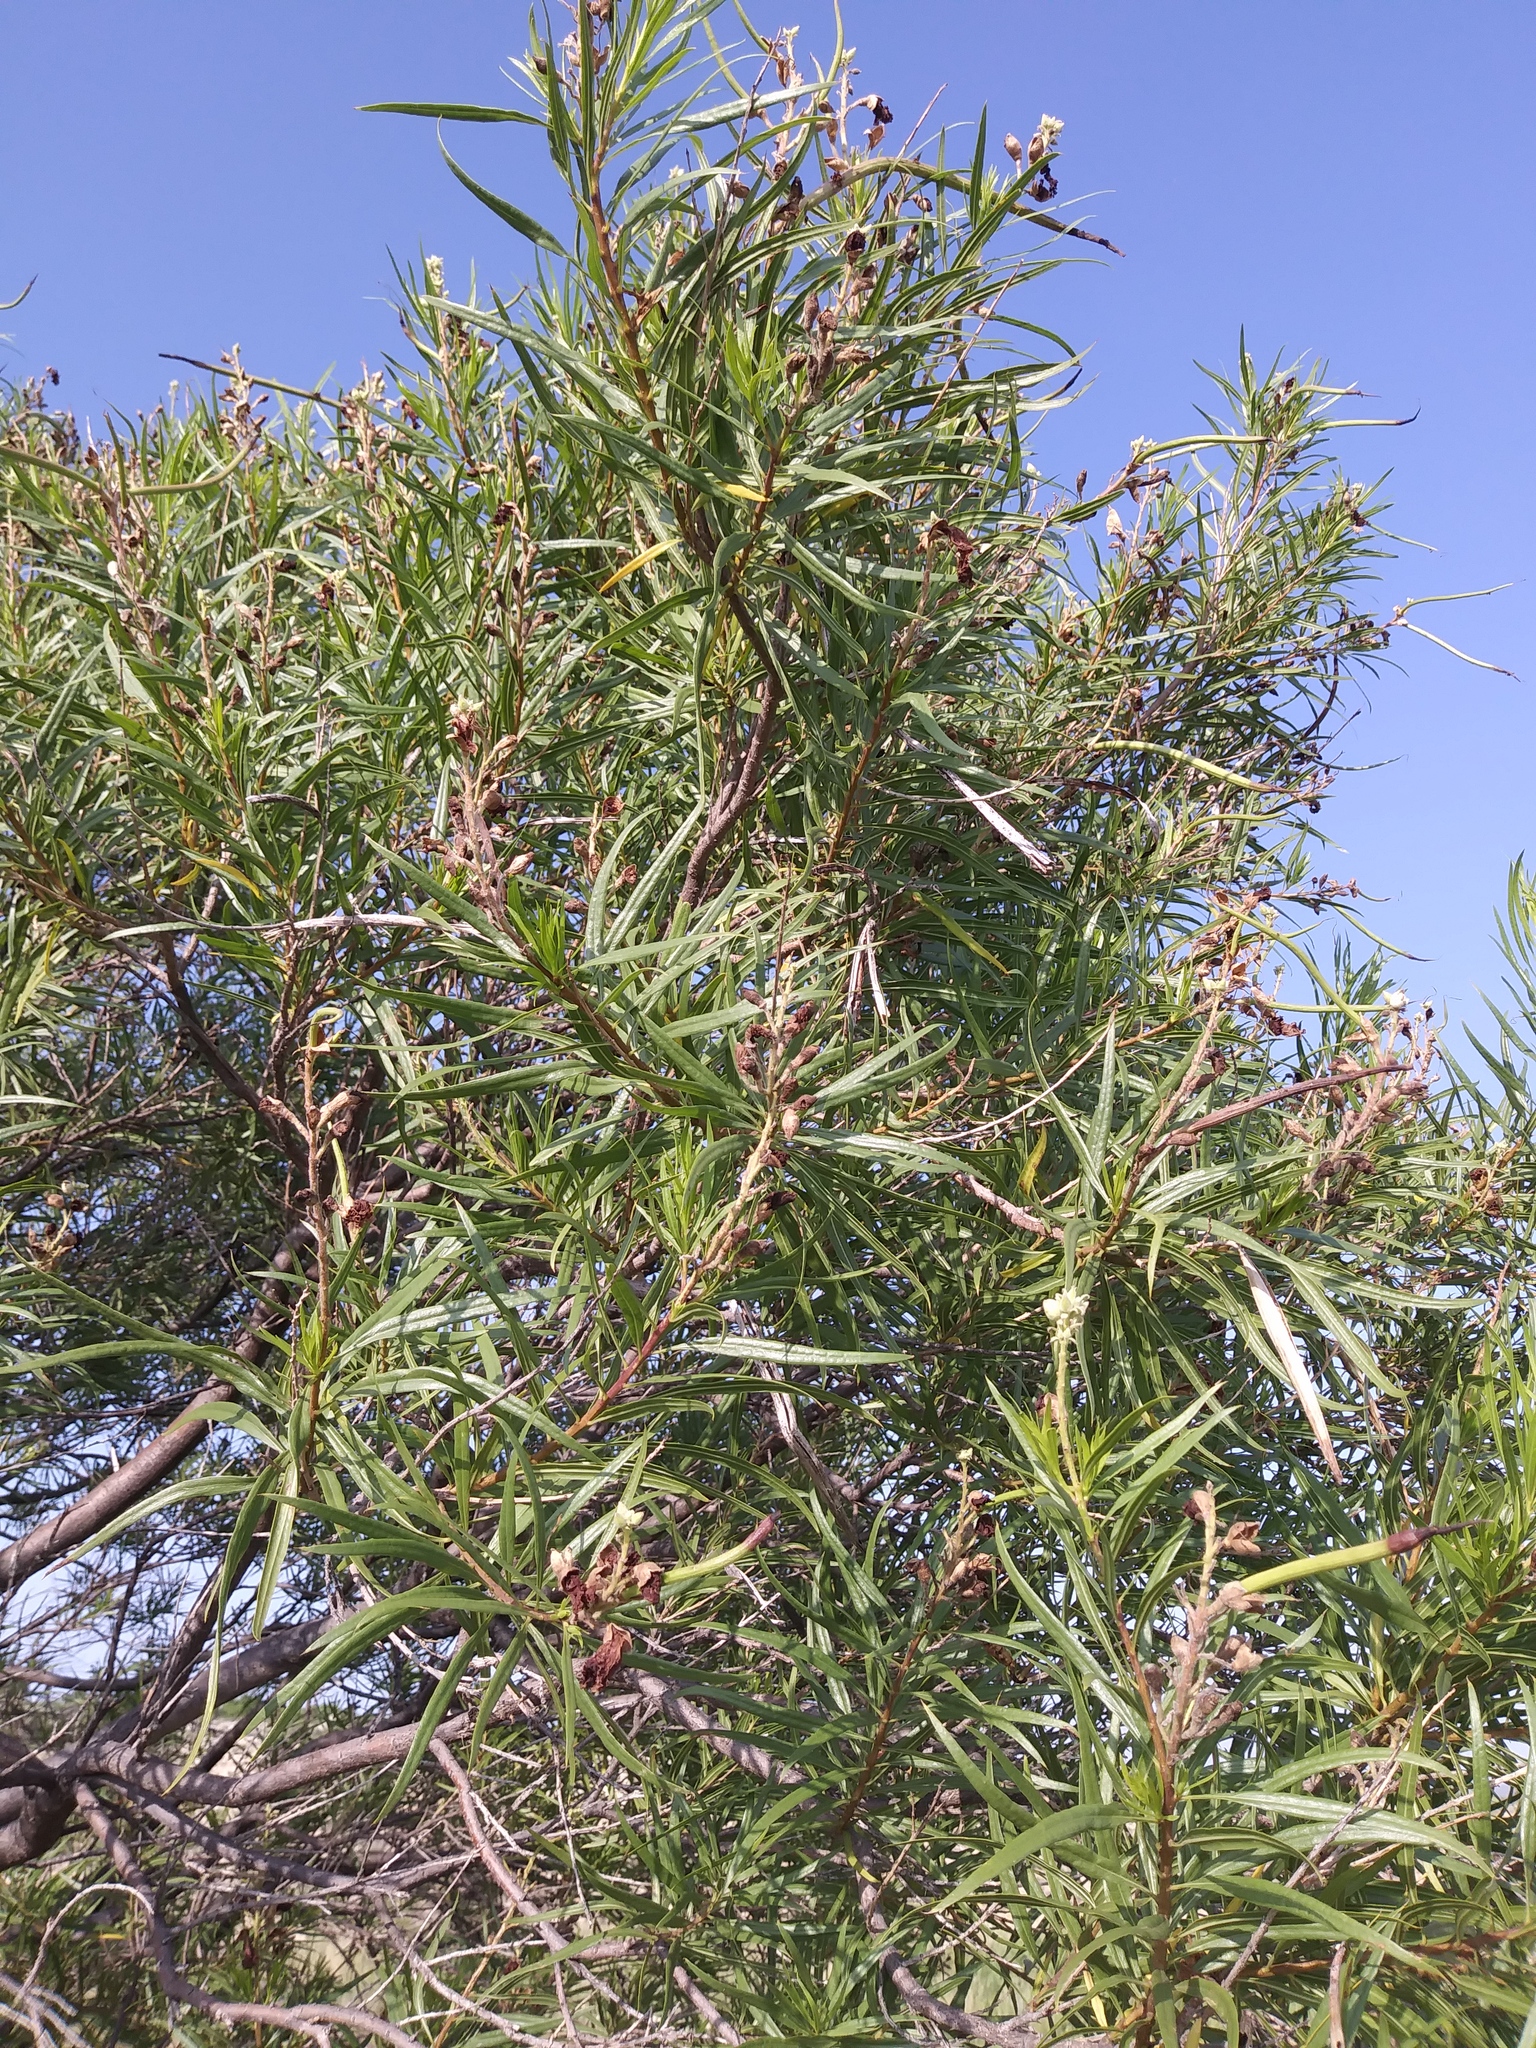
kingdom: Plantae
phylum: Tracheophyta
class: Magnoliopsida
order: Lamiales
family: Bignoniaceae
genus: Chilopsis
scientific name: Chilopsis linearis
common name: Desert-willow
